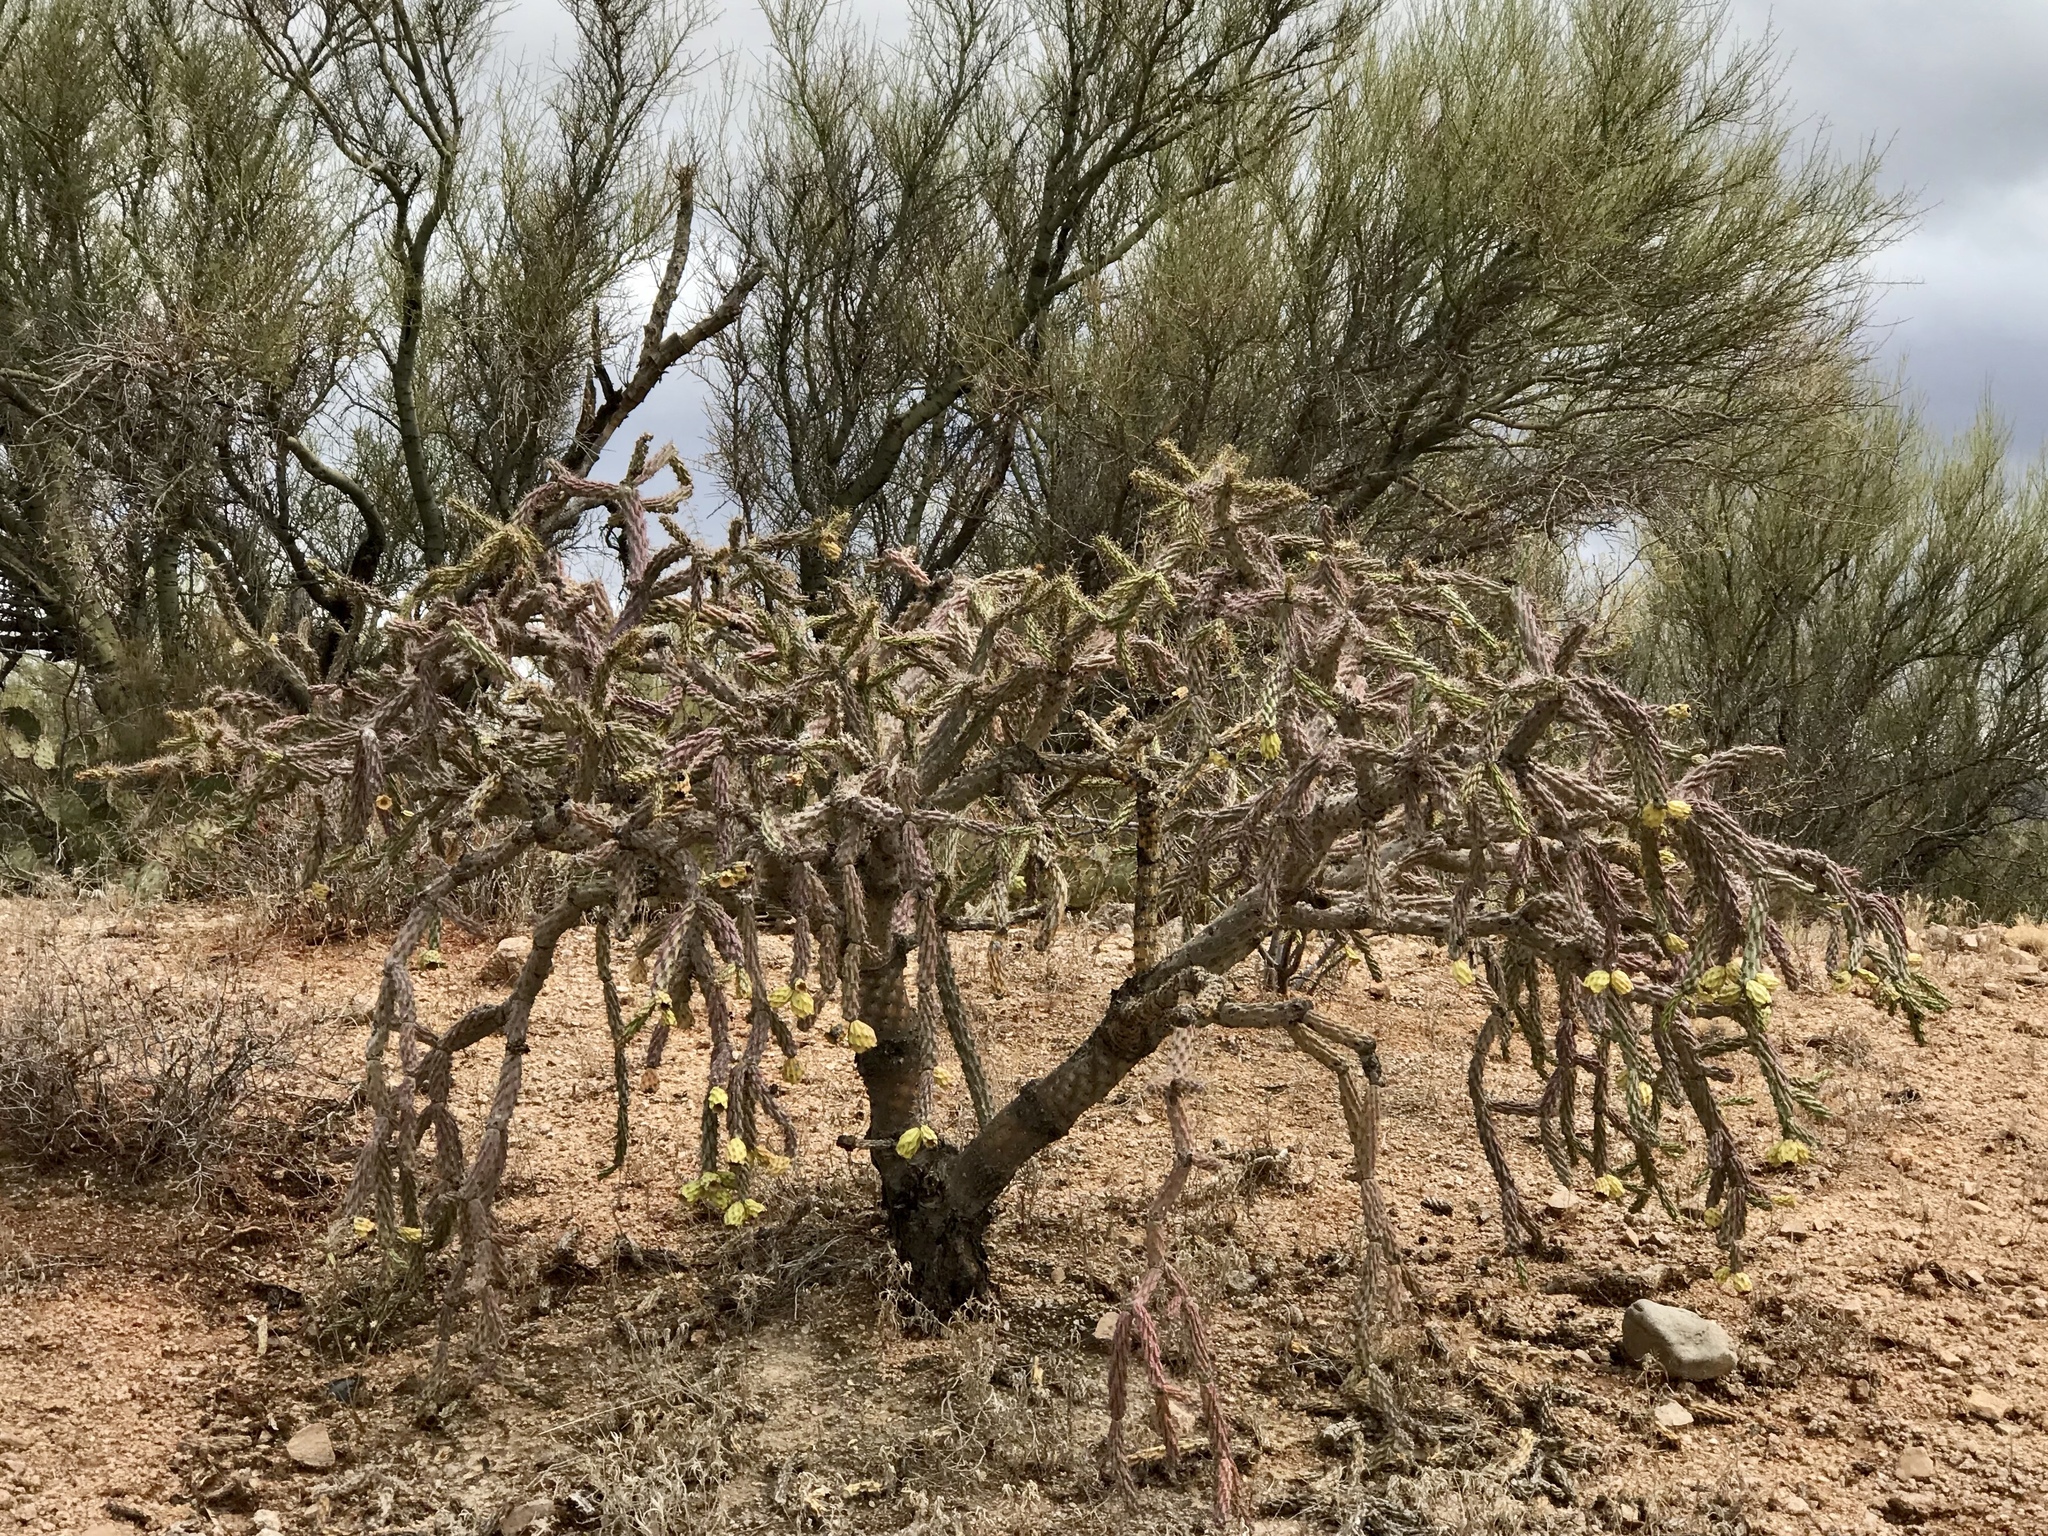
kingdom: Plantae
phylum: Tracheophyta
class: Magnoliopsida
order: Caryophyllales
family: Cactaceae
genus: Cylindropuntia
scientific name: Cylindropuntia thurberi
